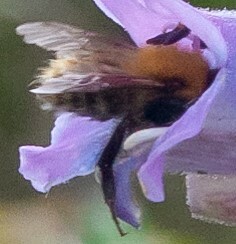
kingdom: Animalia
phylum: Arthropoda
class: Insecta
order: Hymenoptera
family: Apidae
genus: Bombus
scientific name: Bombus pascuorum
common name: Common carder bee
